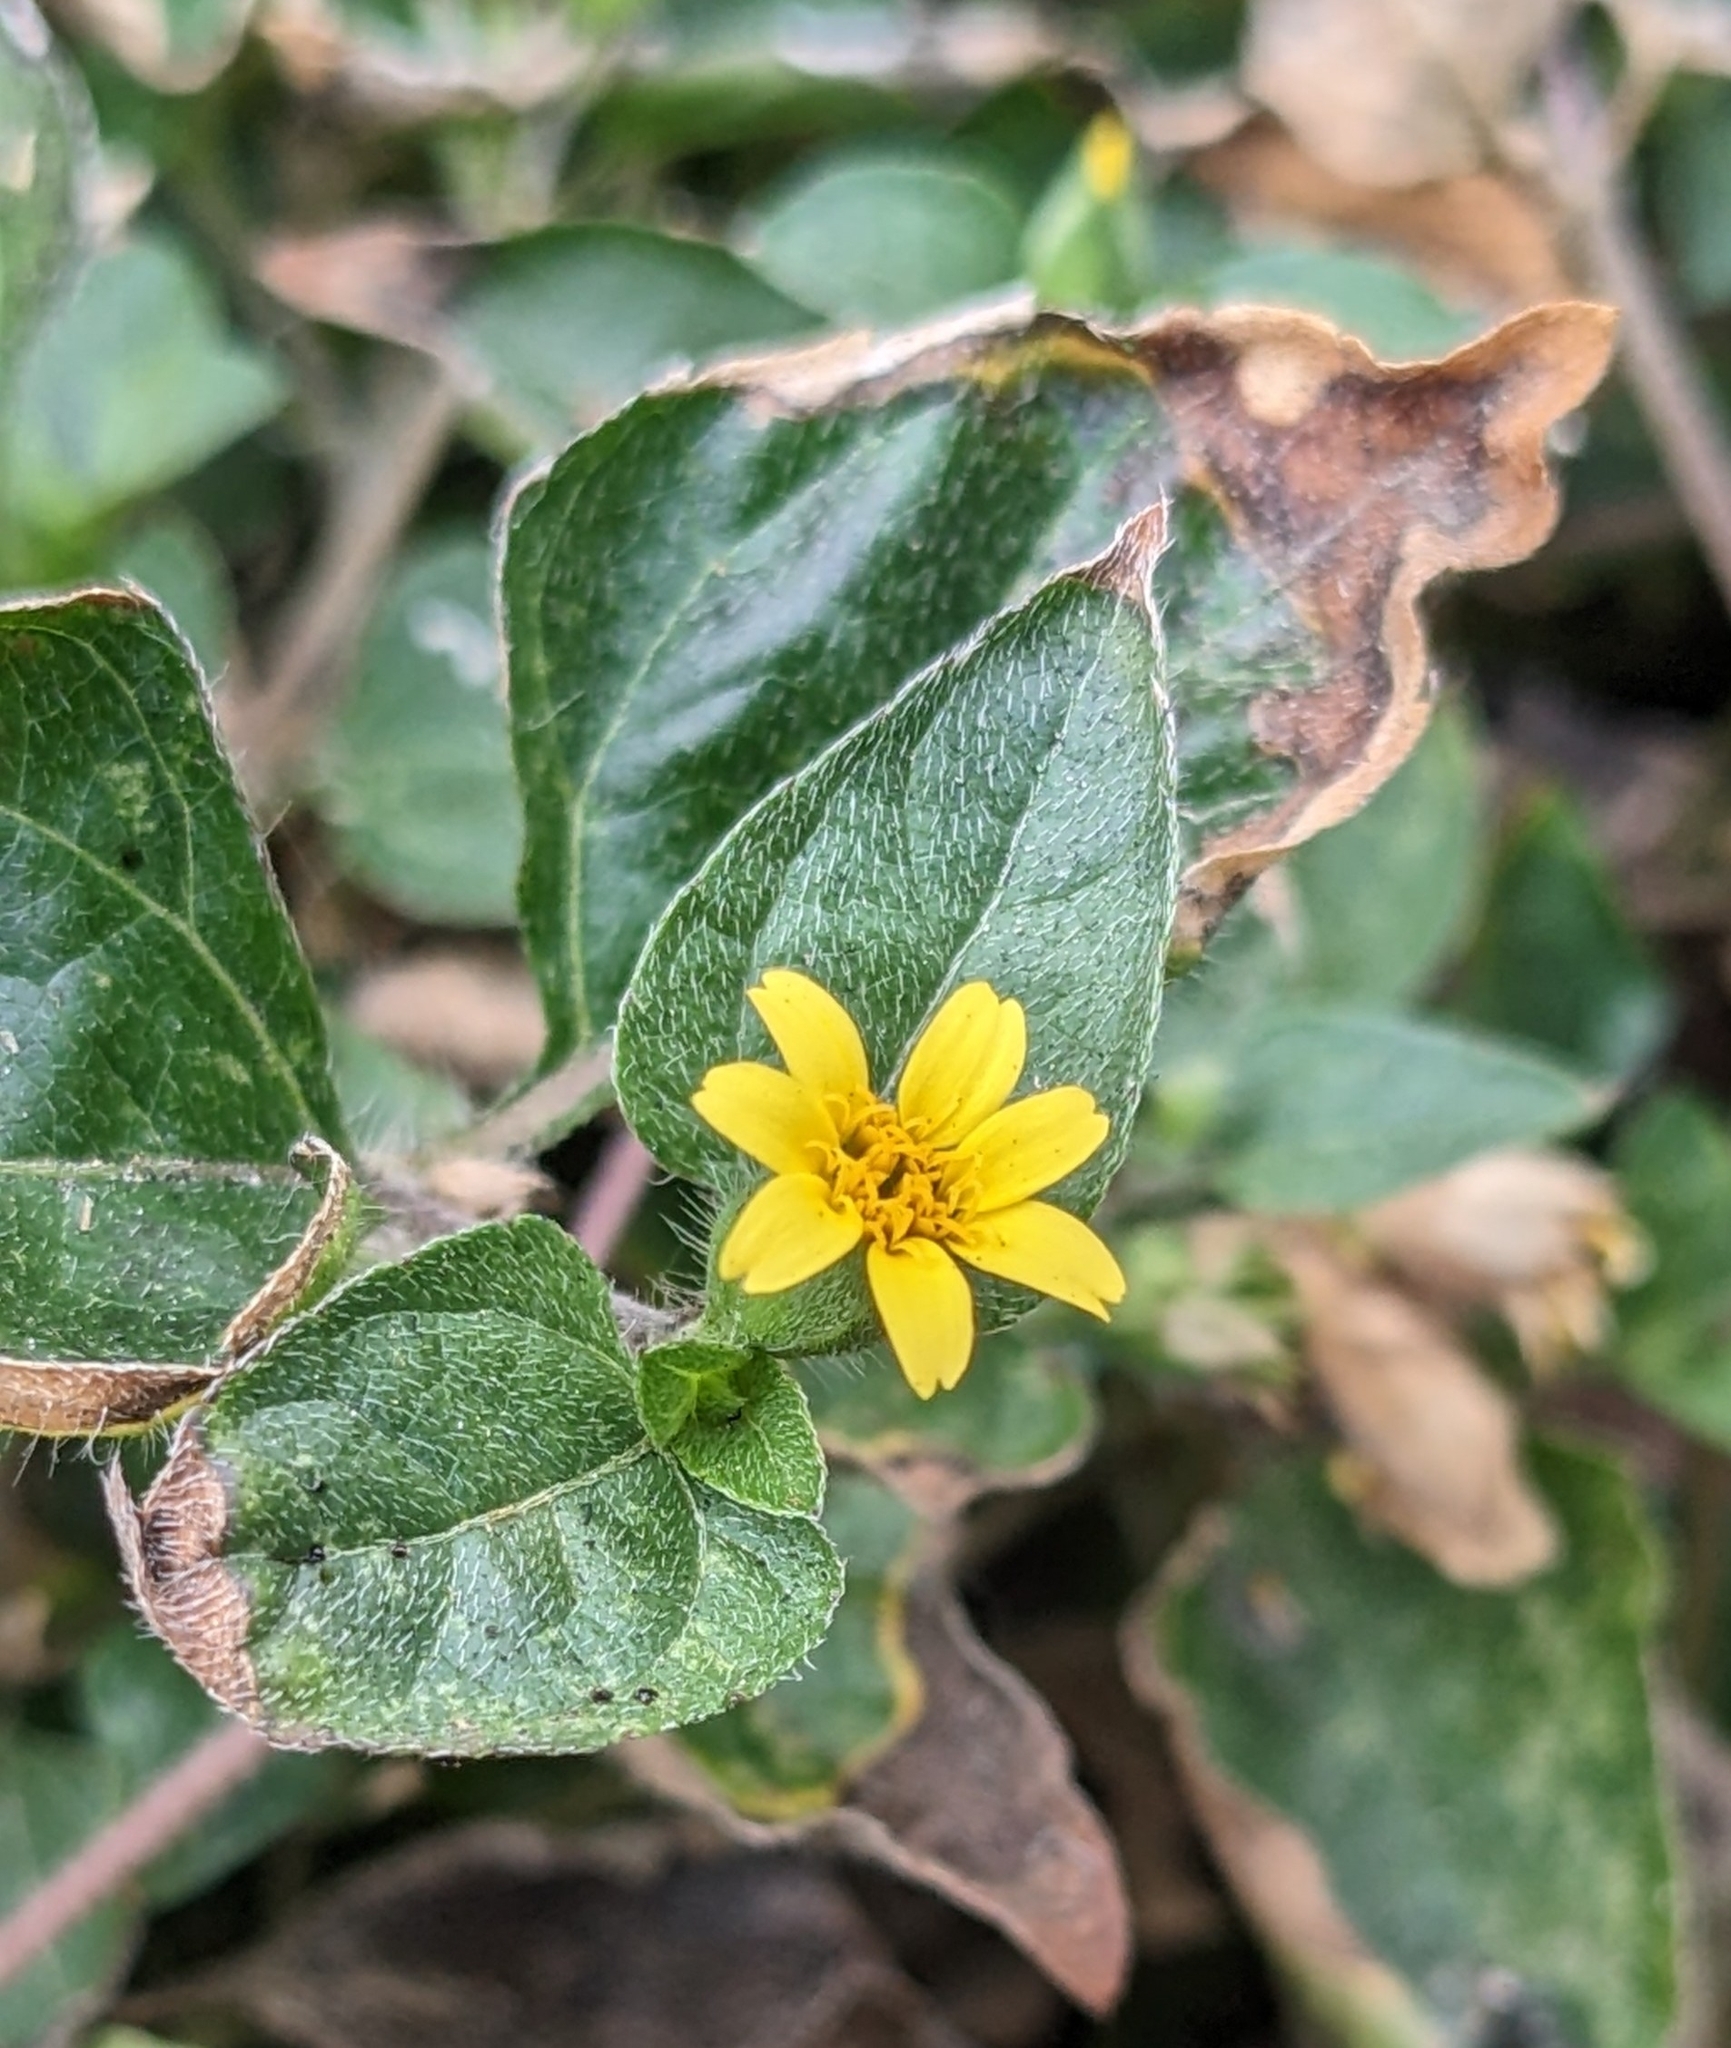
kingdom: Plantae
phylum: Tracheophyta
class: Magnoliopsida
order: Asterales
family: Asteraceae
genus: Calyptocarpus
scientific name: Calyptocarpus vialis
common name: Straggler daisy
